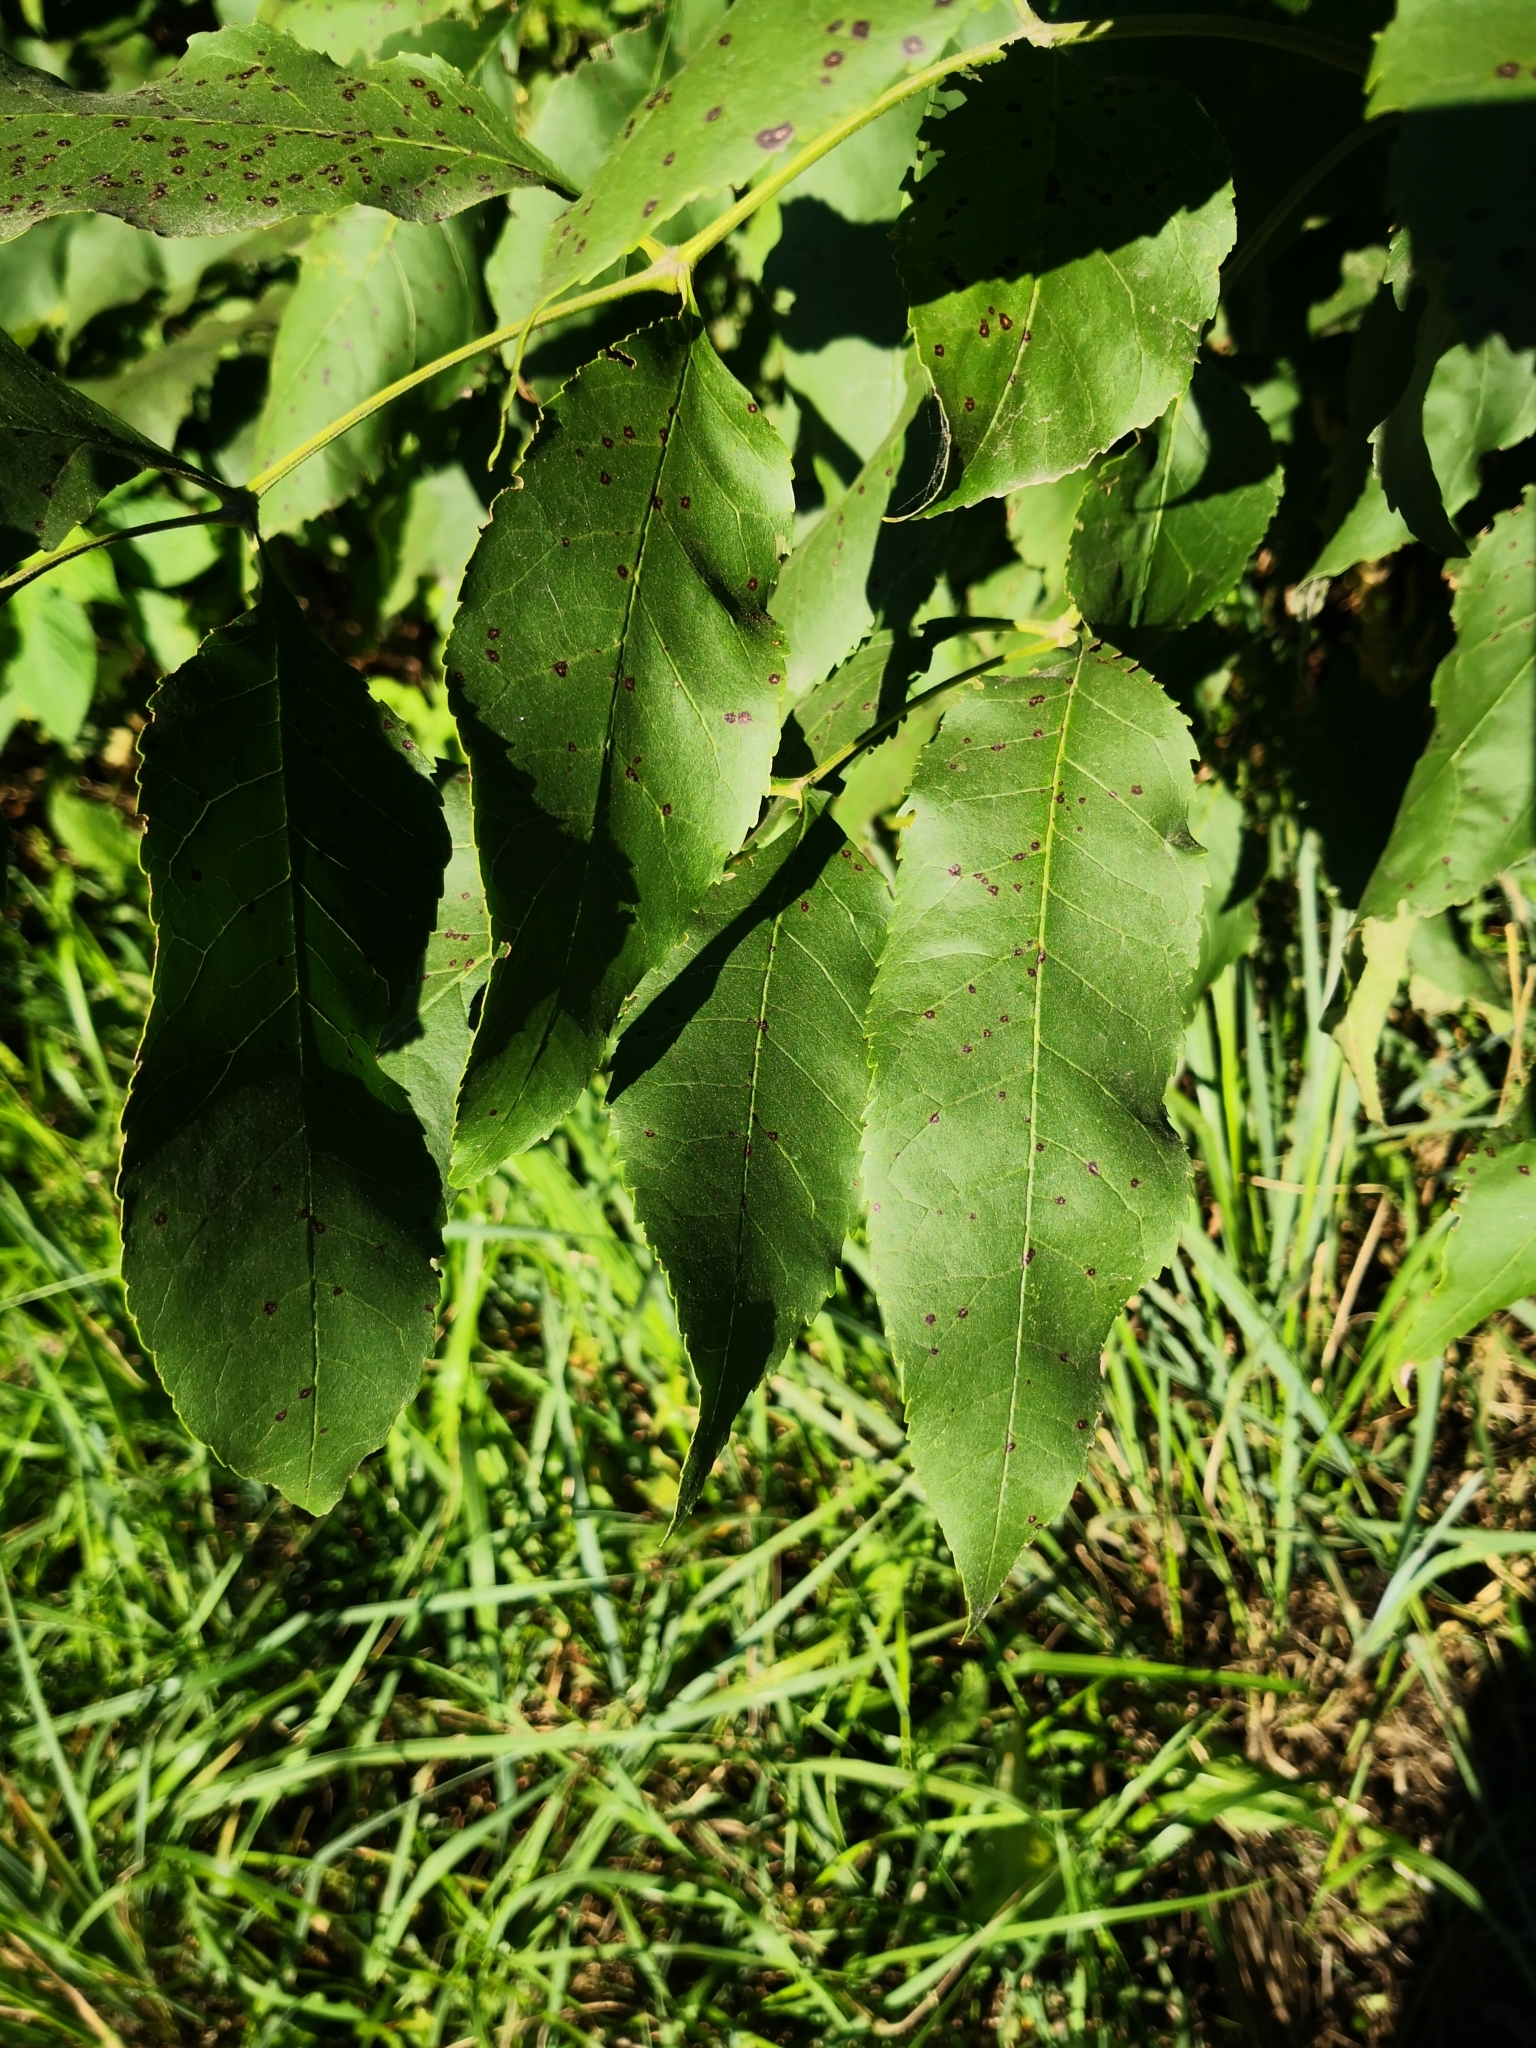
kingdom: Plantae
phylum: Tracheophyta
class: Magnoliopsida
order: Lamiales
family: Oleaceae
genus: Fraxinus
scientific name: Fraxinus pennsylvanica
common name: Green ash
